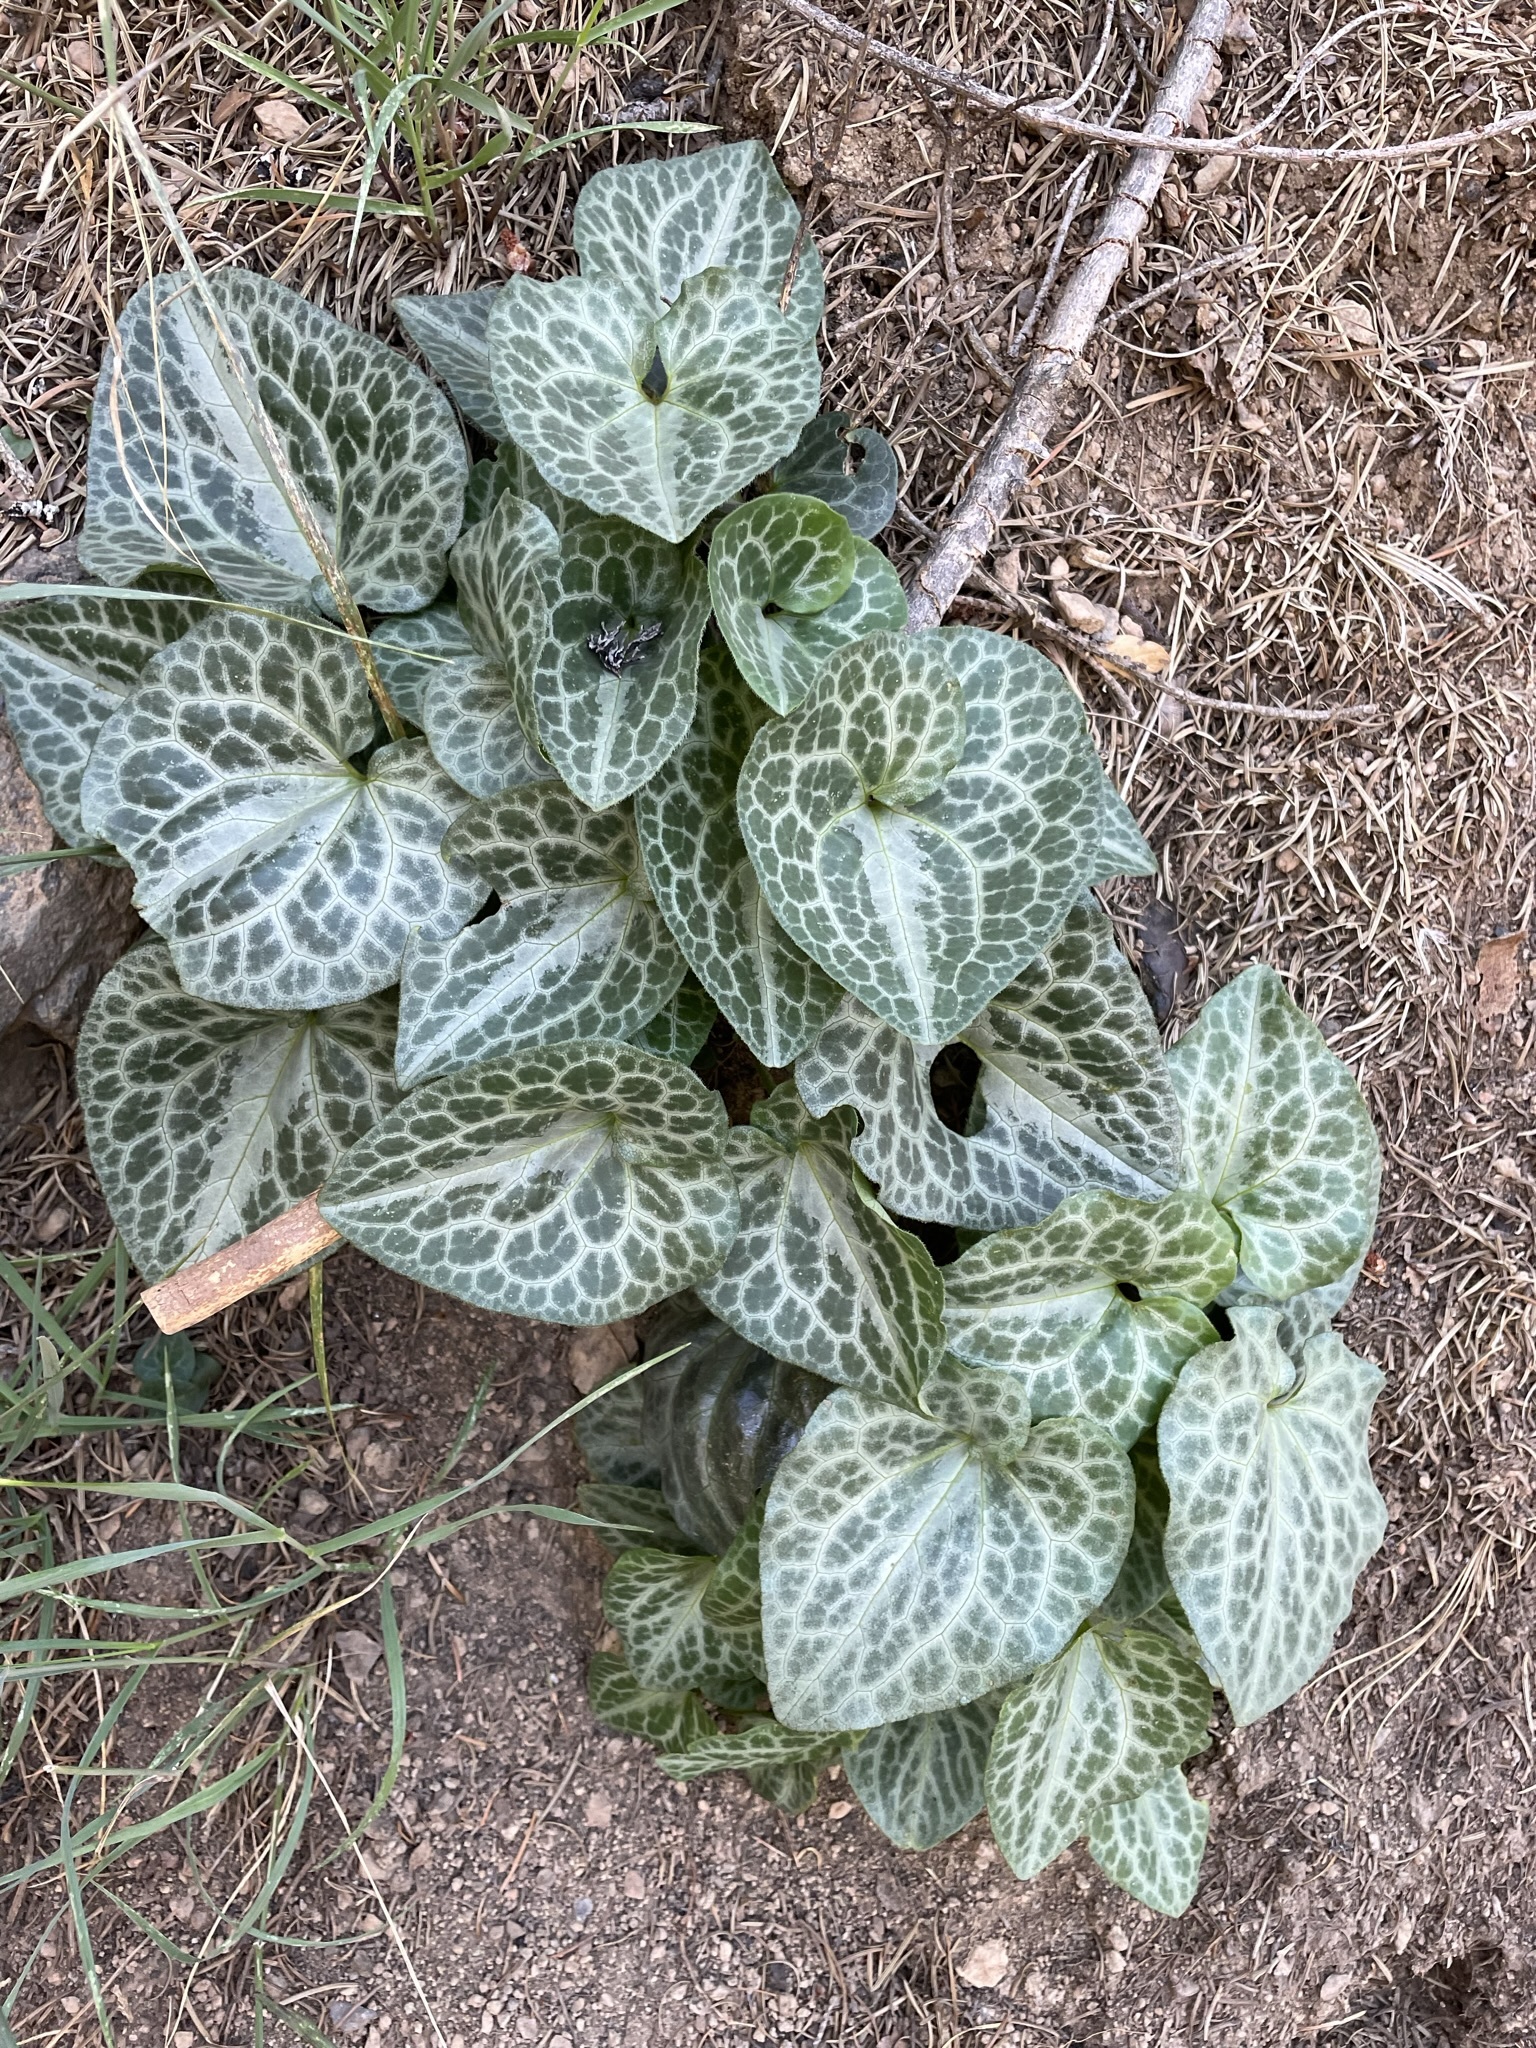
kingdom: Plantae
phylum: Tracheophyta
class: Magnoliopsida
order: Piperales
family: Aristolochiaceae
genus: Asarum
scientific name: Asarum hartwegii
